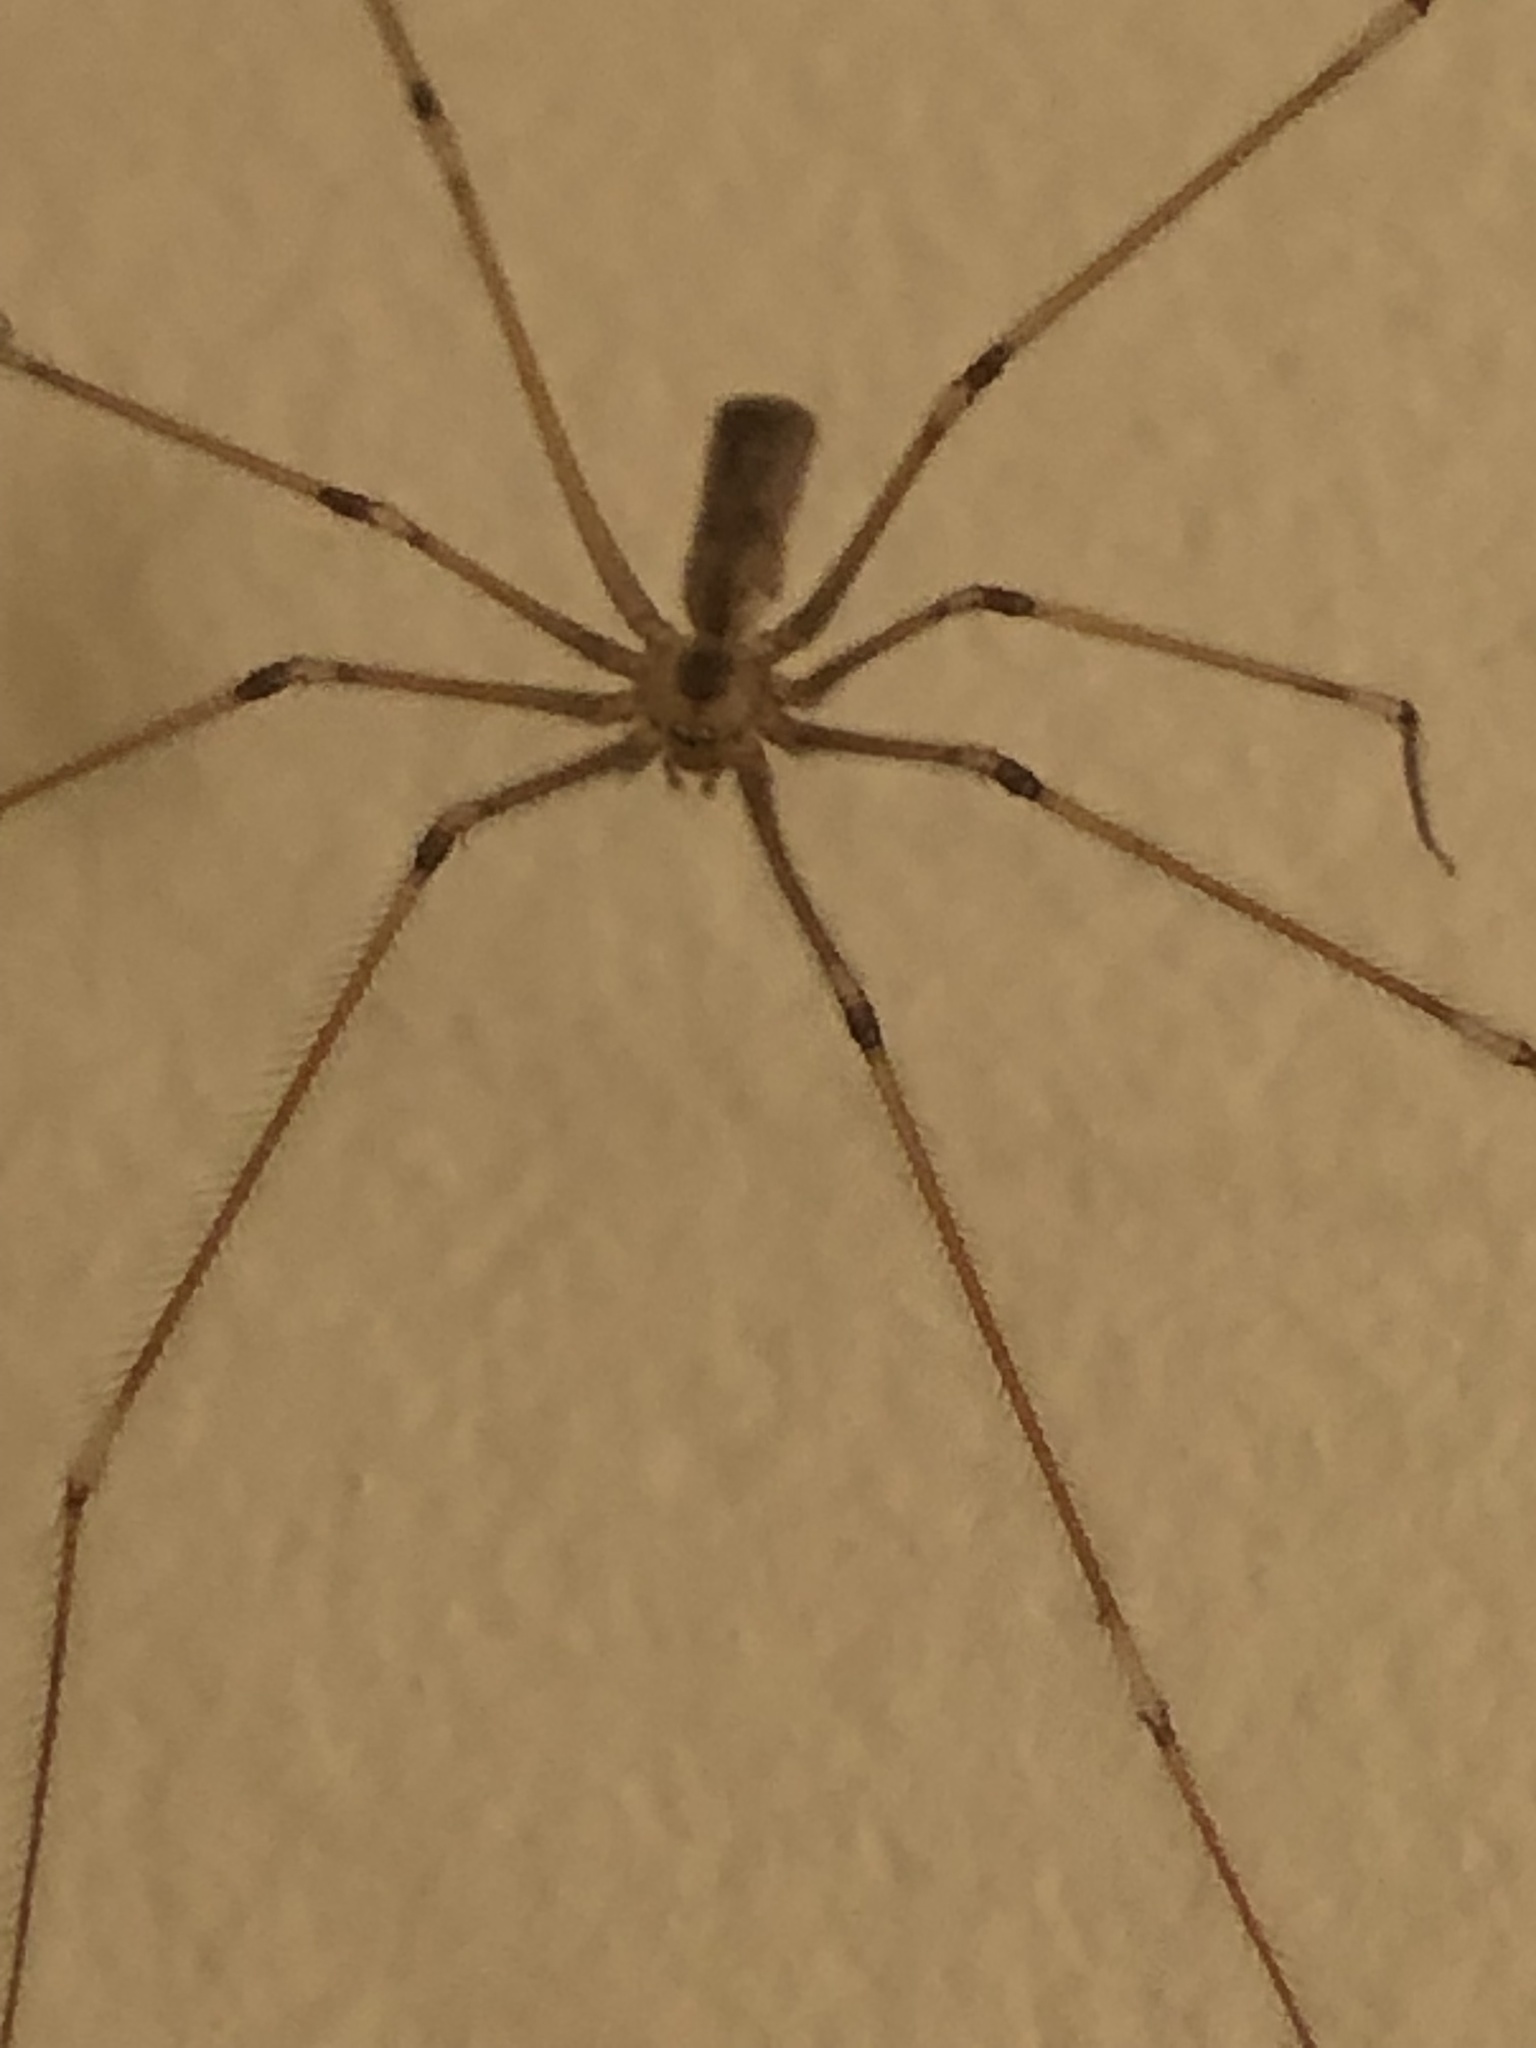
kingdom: Animalia
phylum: Arthropoda
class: Arachnida
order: Araneae
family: Pholcidae
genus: Pholcus
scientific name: Pholcus phalangioides
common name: Longbodied cellar spider
